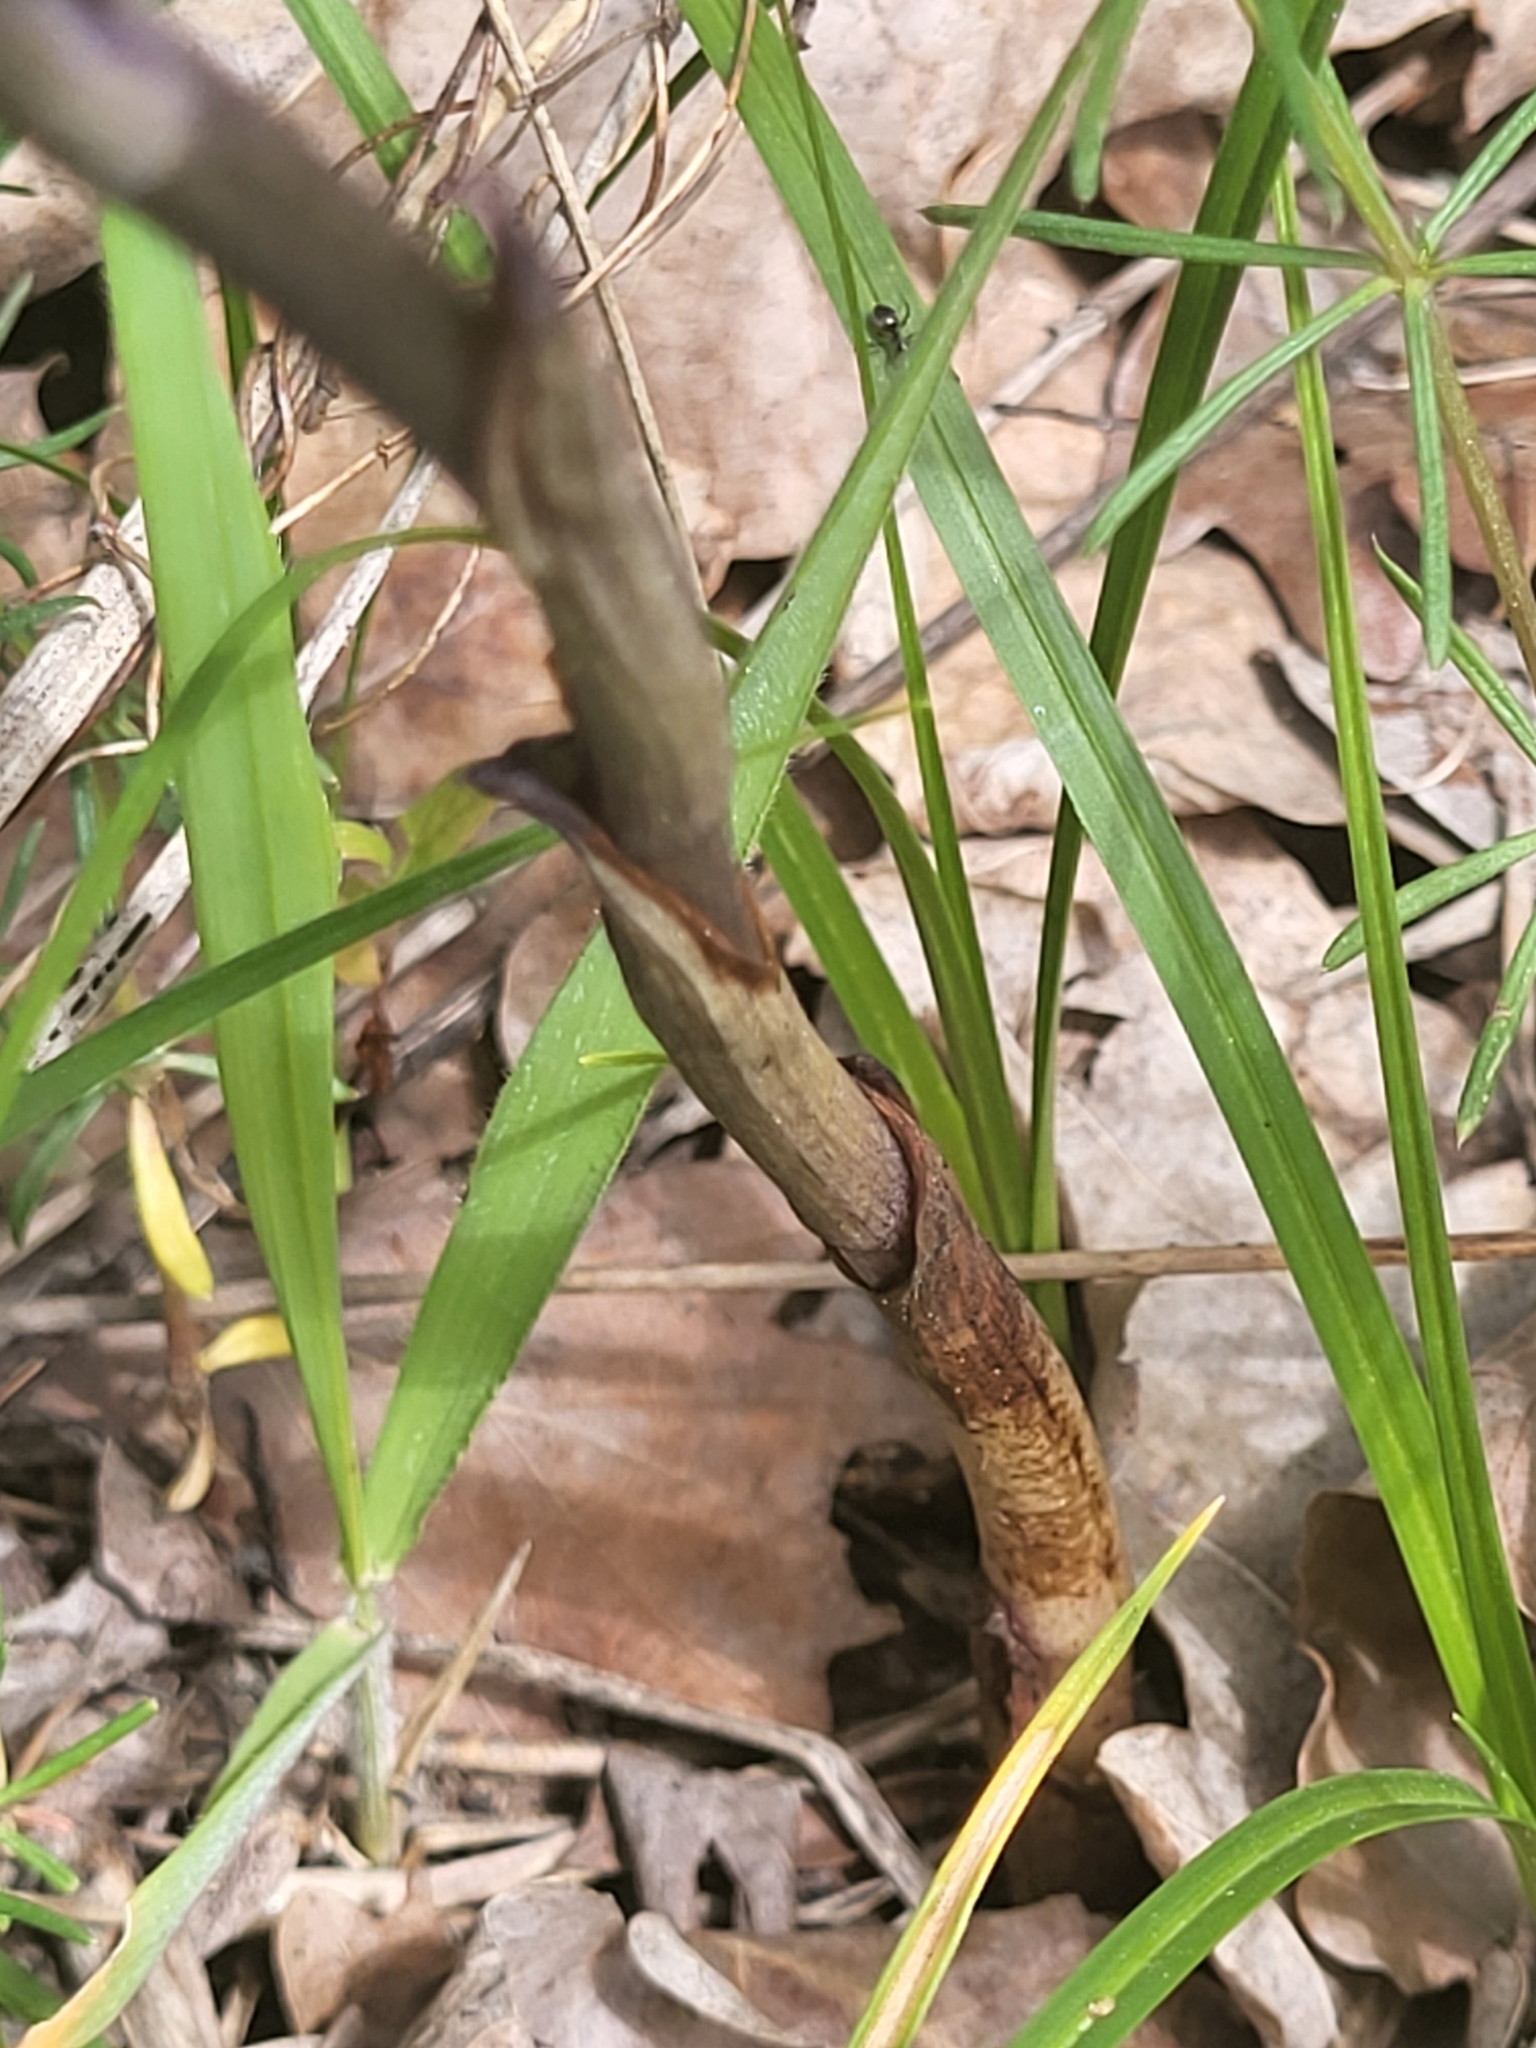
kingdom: Plantae
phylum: Tracheophyta
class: Liliopsida
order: Asparagales
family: Orchidaceae
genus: Limodorum
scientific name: Limodorum abortivum
